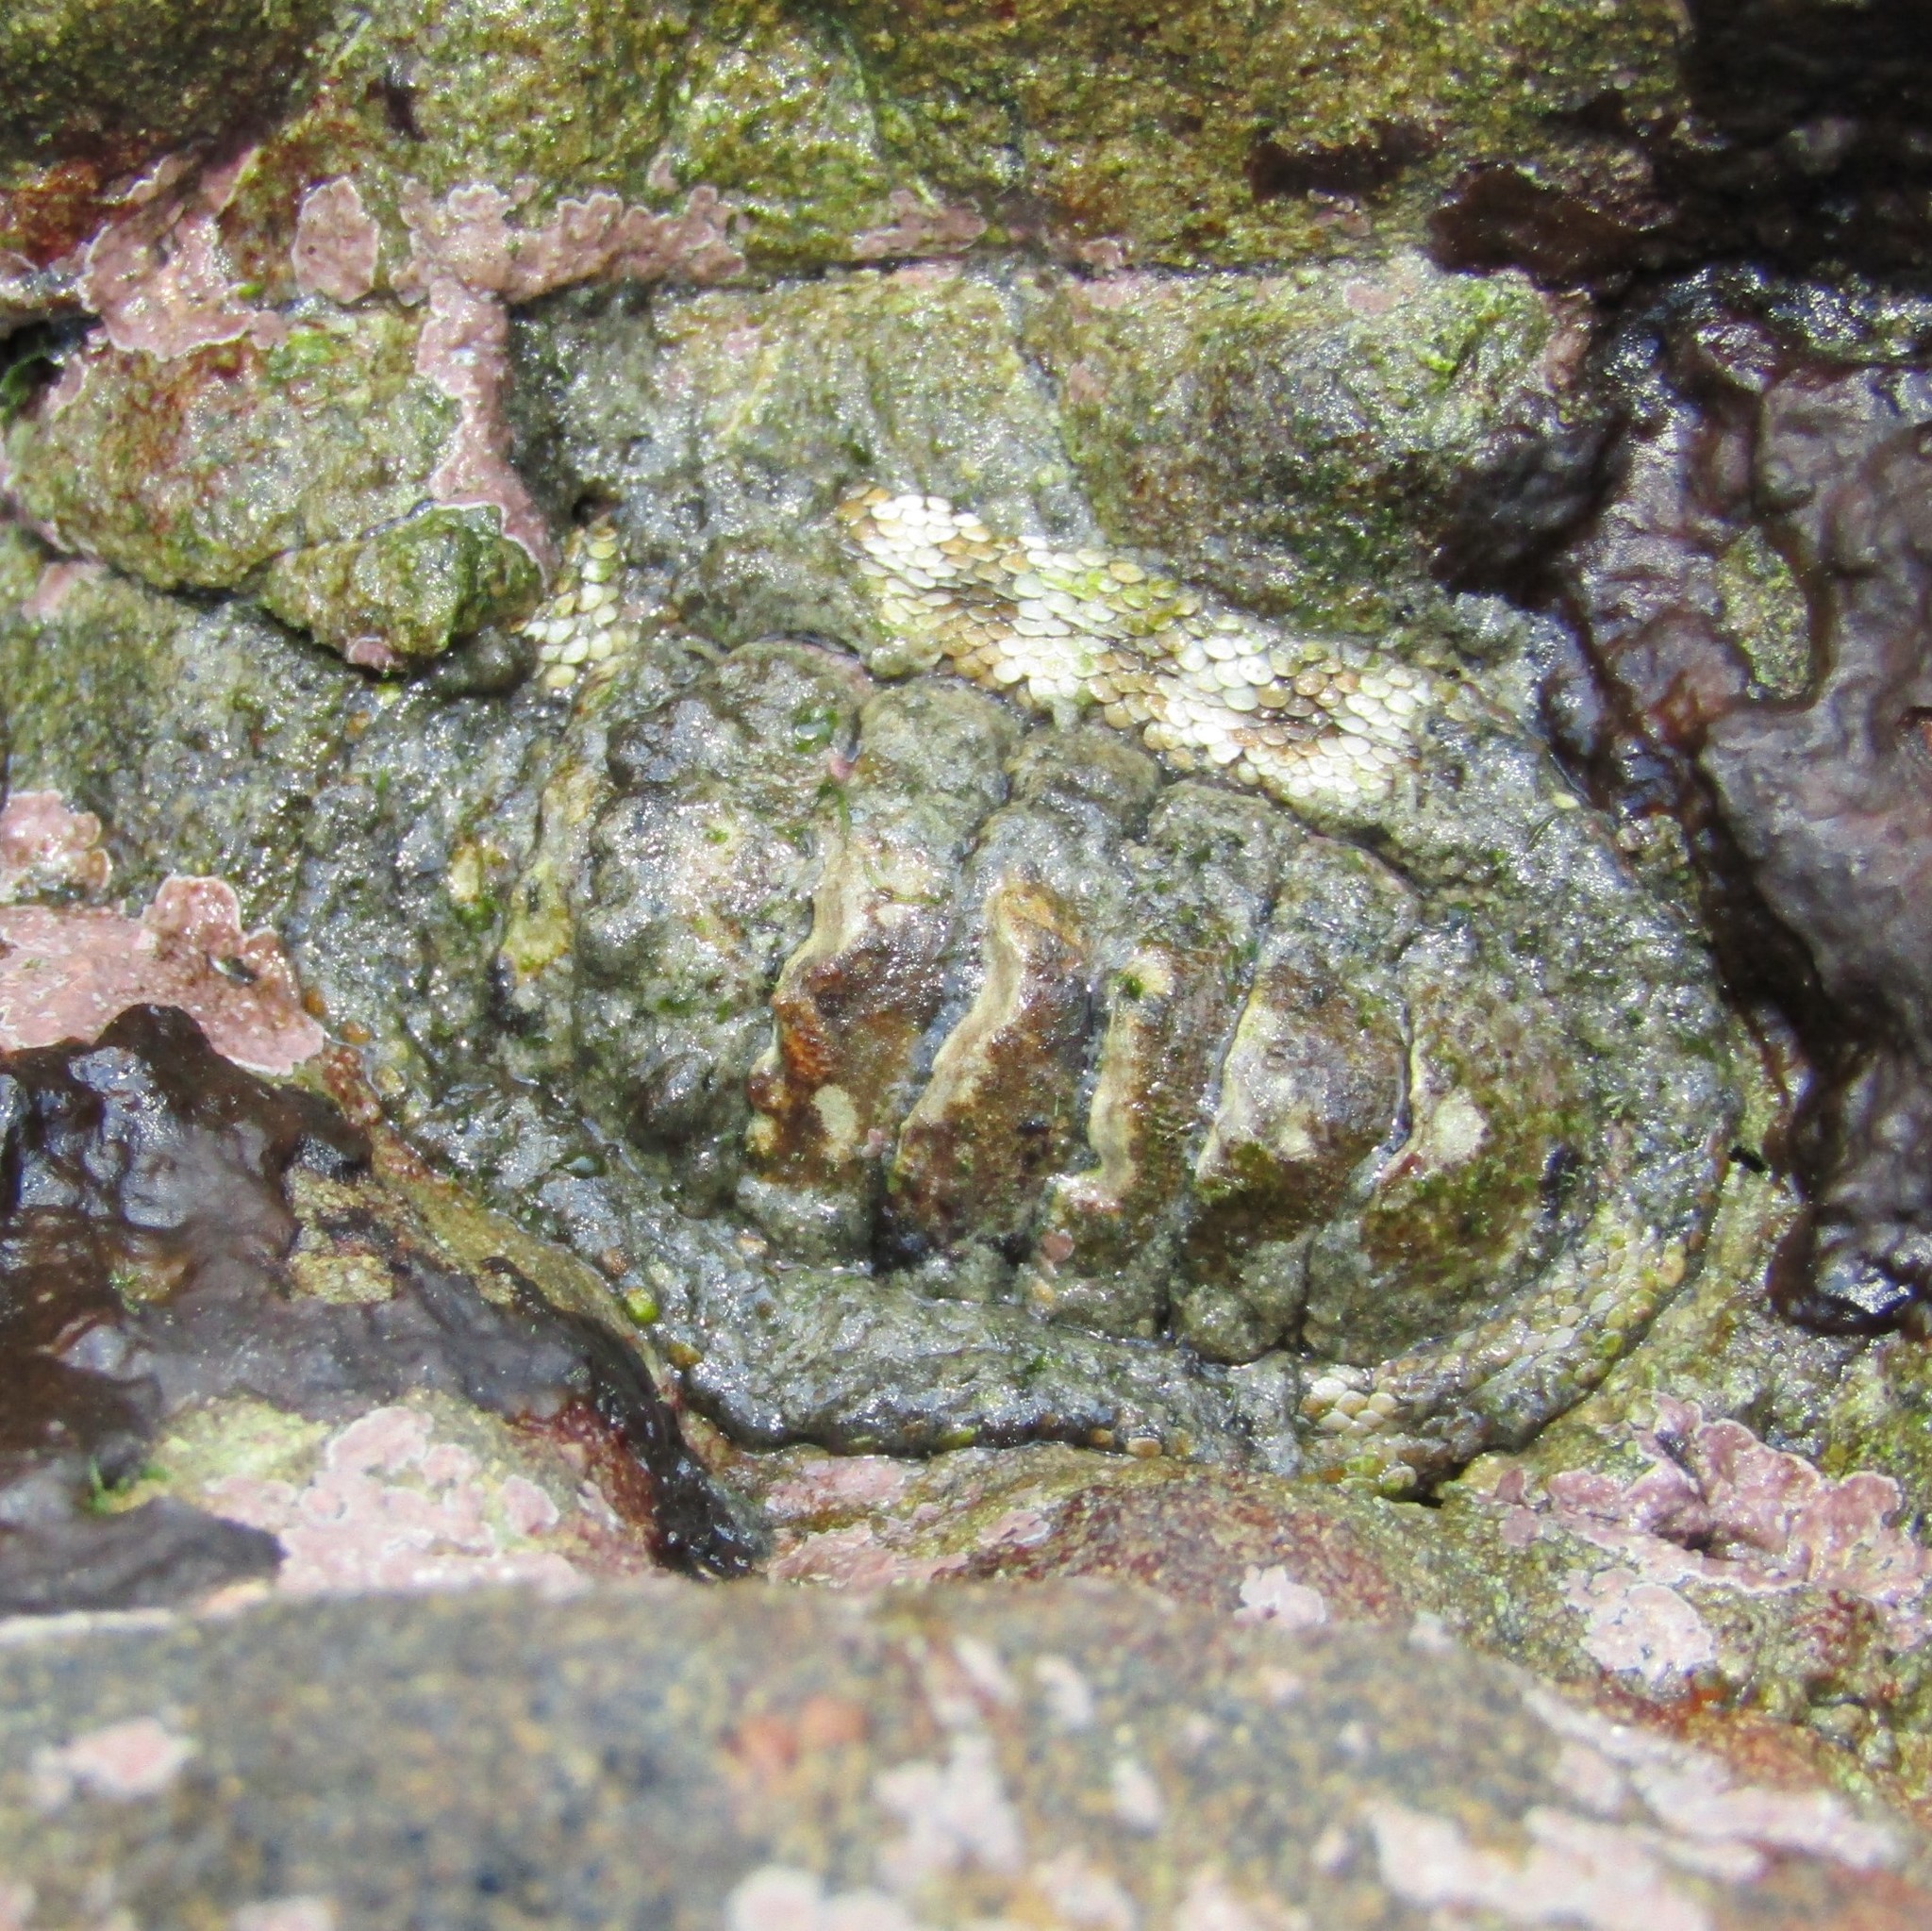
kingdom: Animalia
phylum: Mollusca
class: Polyplacophora
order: Chitonida
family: Chitonidae
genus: Sypharochiton
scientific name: Sypharochiton pelliserpentis
